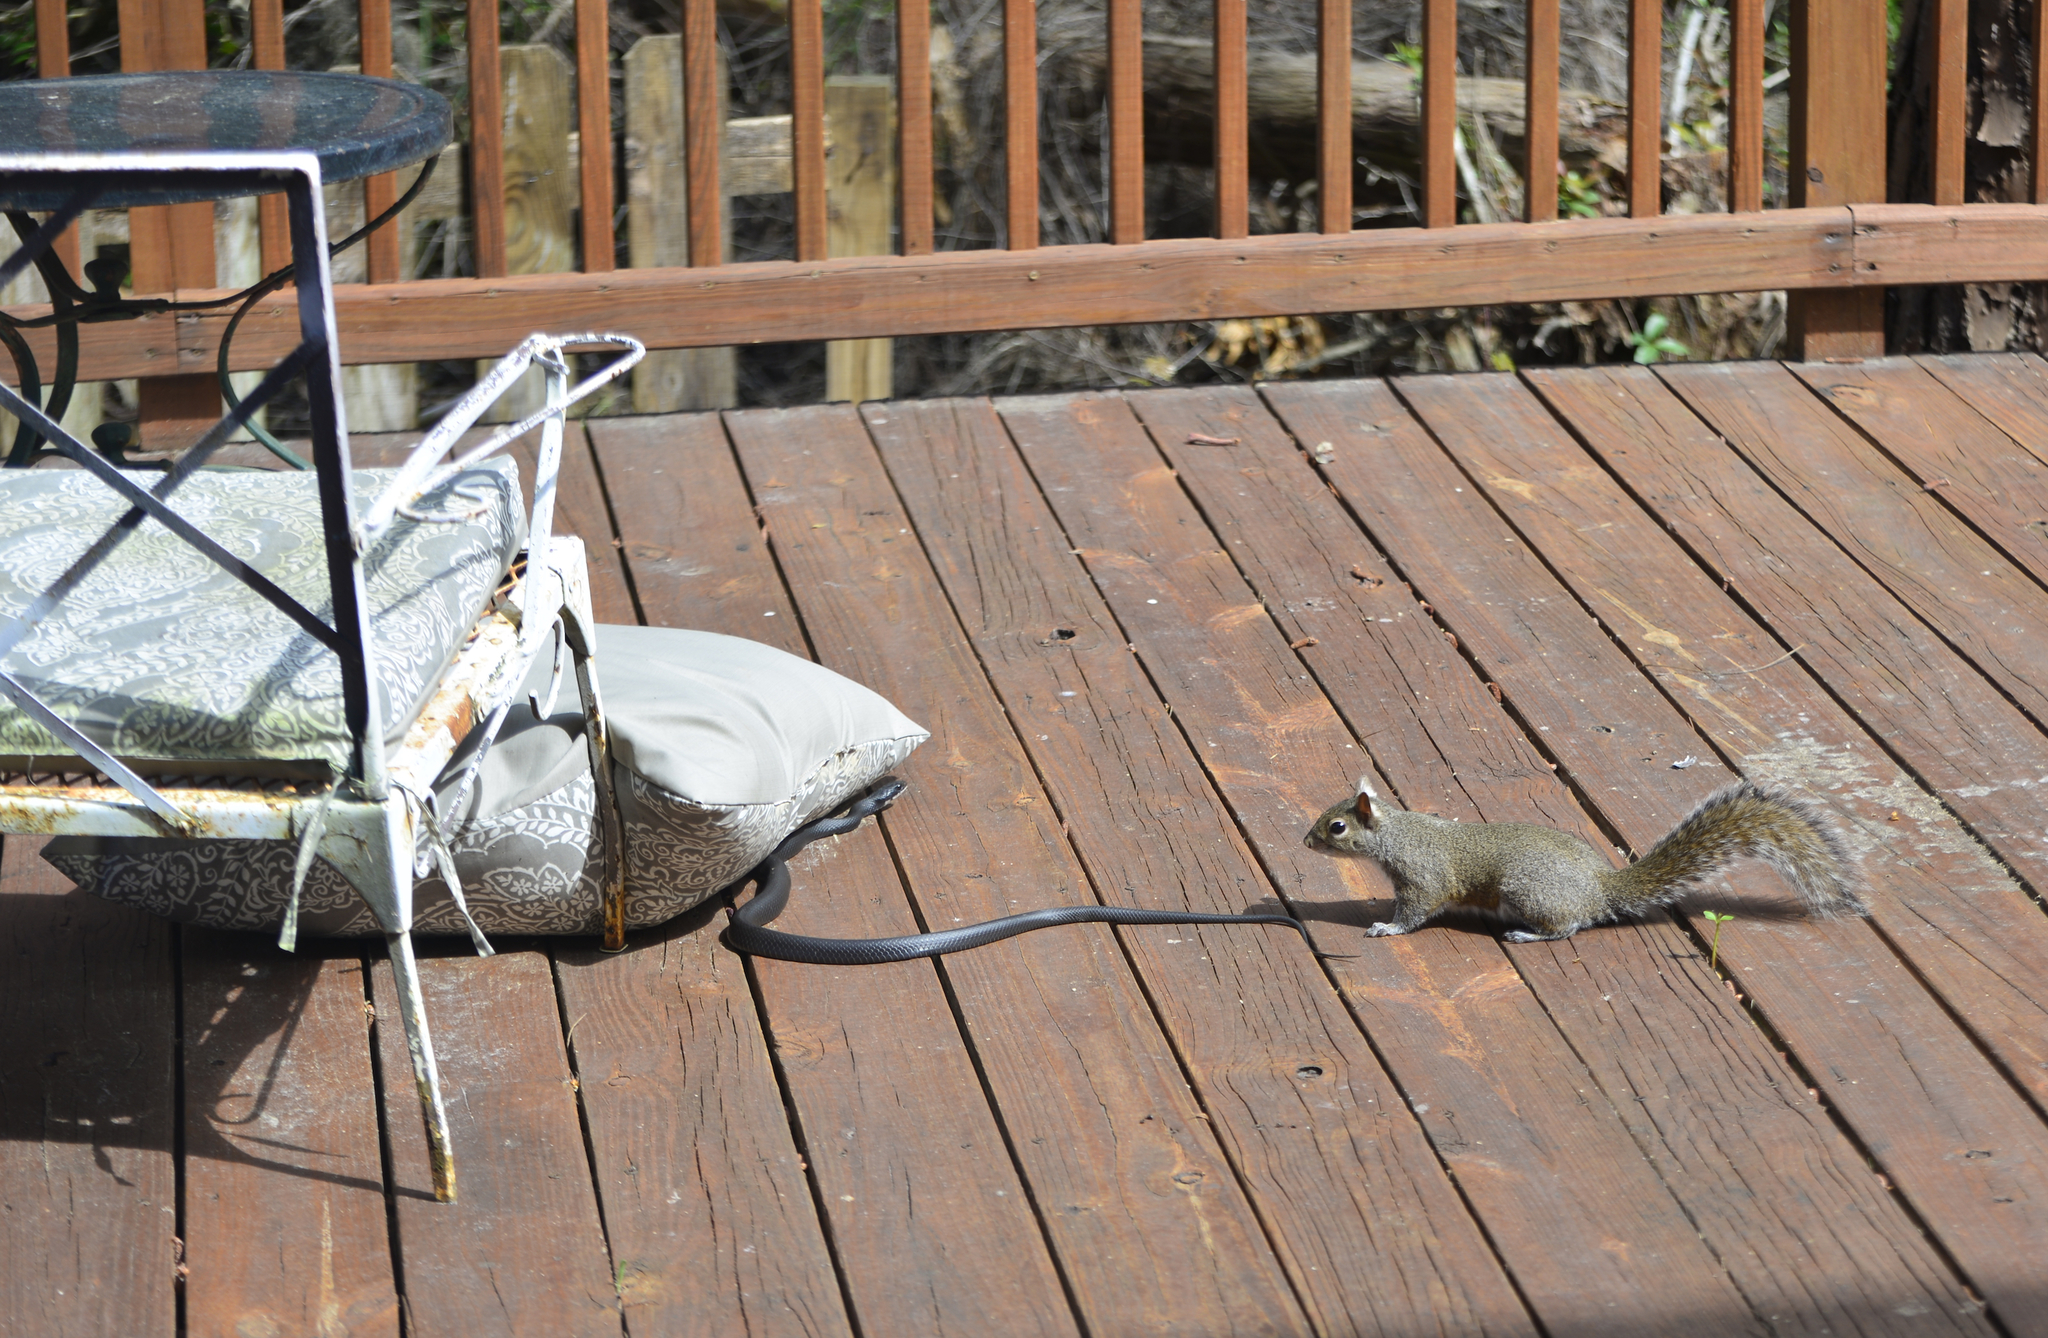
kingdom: Animalia
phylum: Chordata
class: Squamata
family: Colubridae
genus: Coluber
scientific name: Coluber constrictor
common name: Eastern racer
